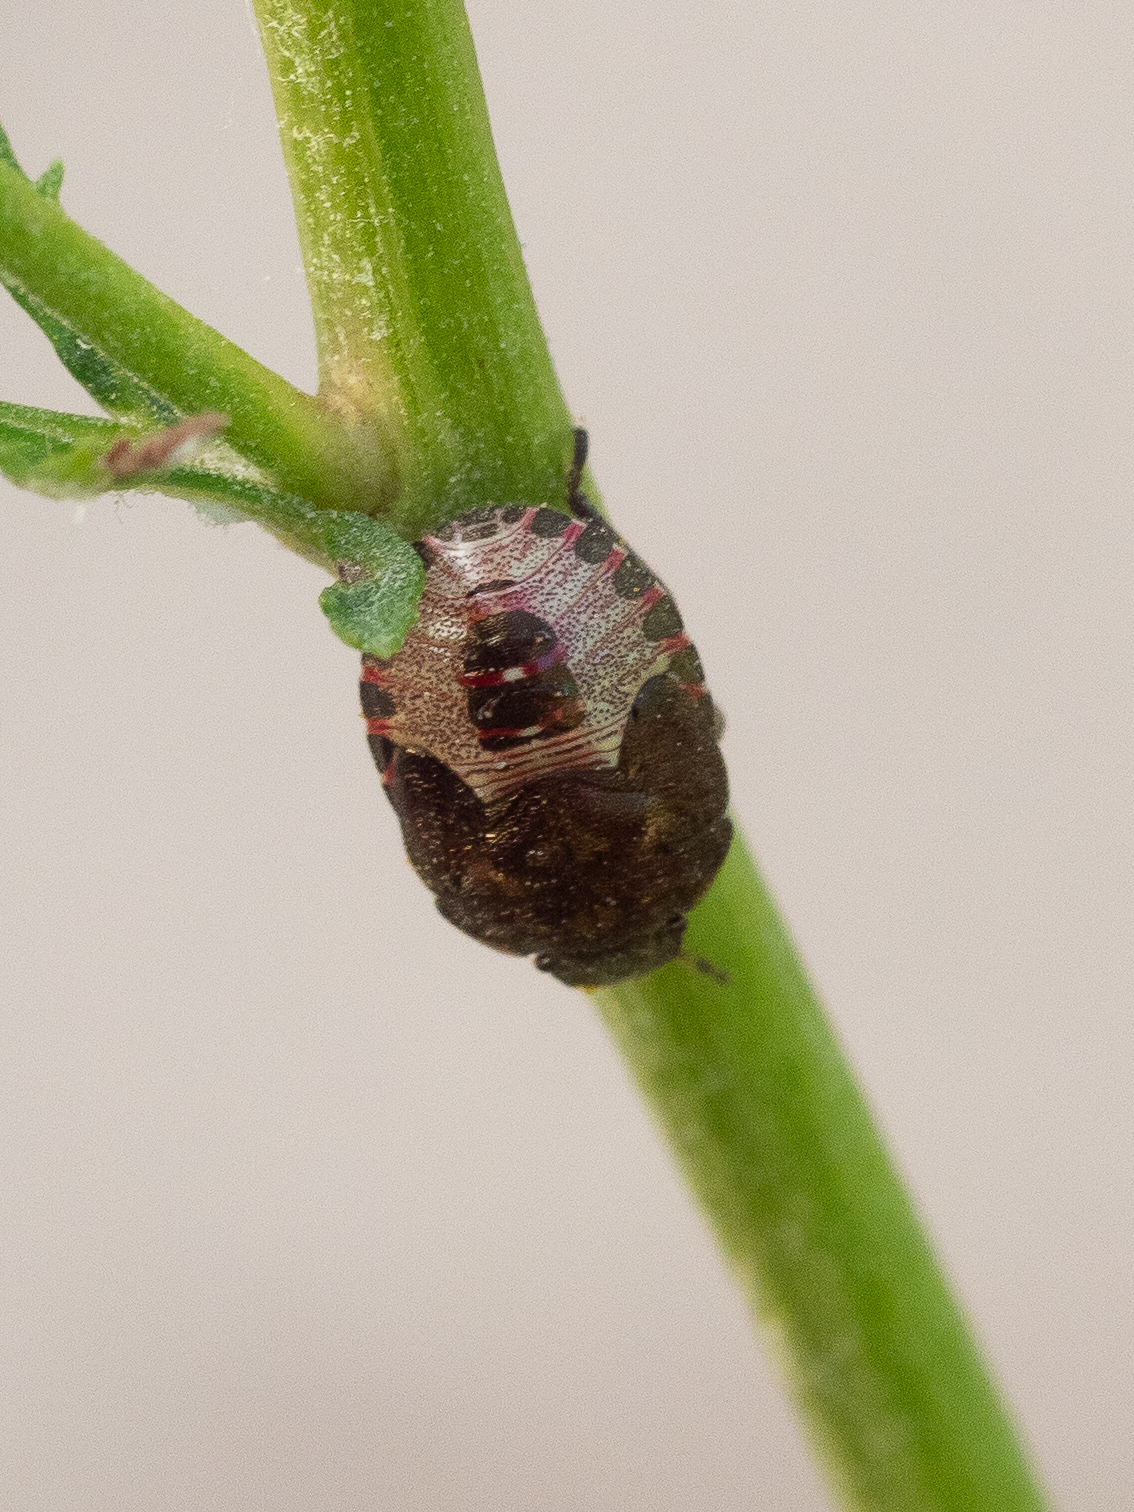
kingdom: Animalia
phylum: Arthropoda
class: Insecta
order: Hemiptera
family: Pentatomidae
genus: Holcostethus
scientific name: Holcostethus strictus
